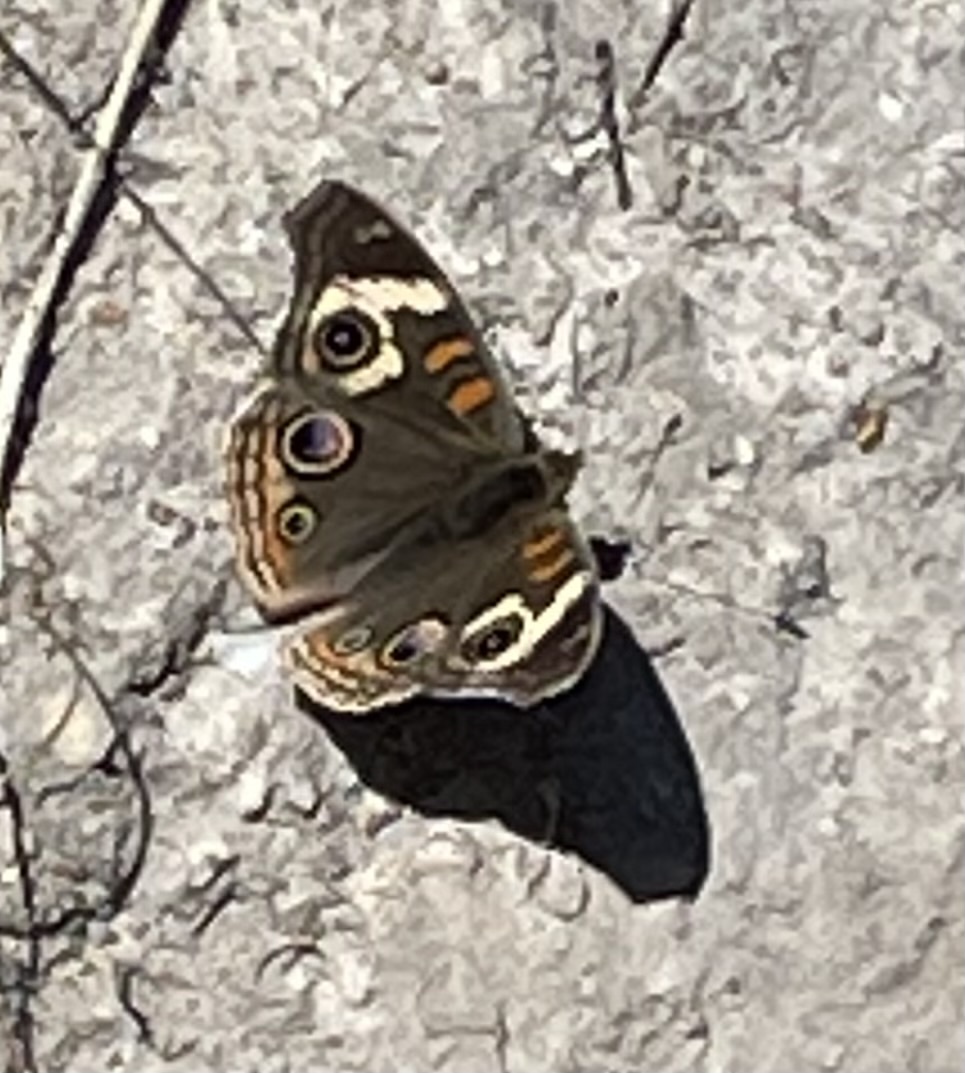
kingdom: Animalia
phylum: Arthropoda
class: Insecta
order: Lepidoptera
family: Nymphalidae
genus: Junonia
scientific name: Junonia grisea
